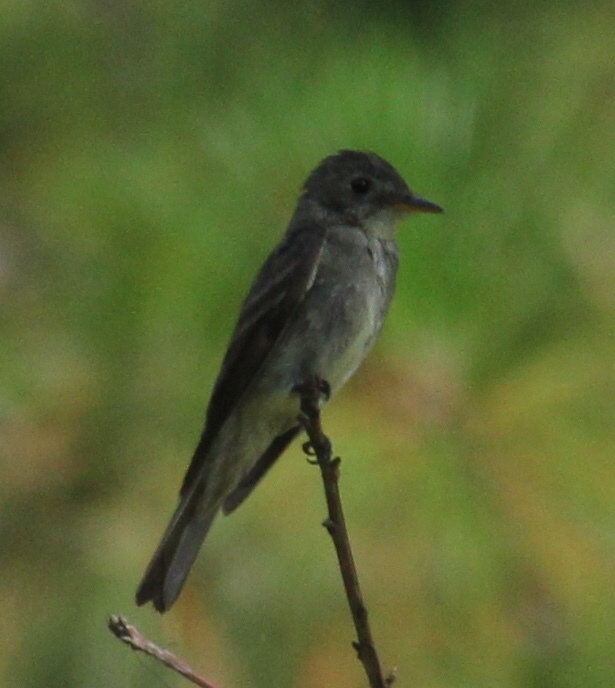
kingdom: Animalia
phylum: Chordata
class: Aves
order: Passeriformes
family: Tyrannidae
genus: Contopus
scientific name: Contopus virens
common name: Eastern wood-pewee
